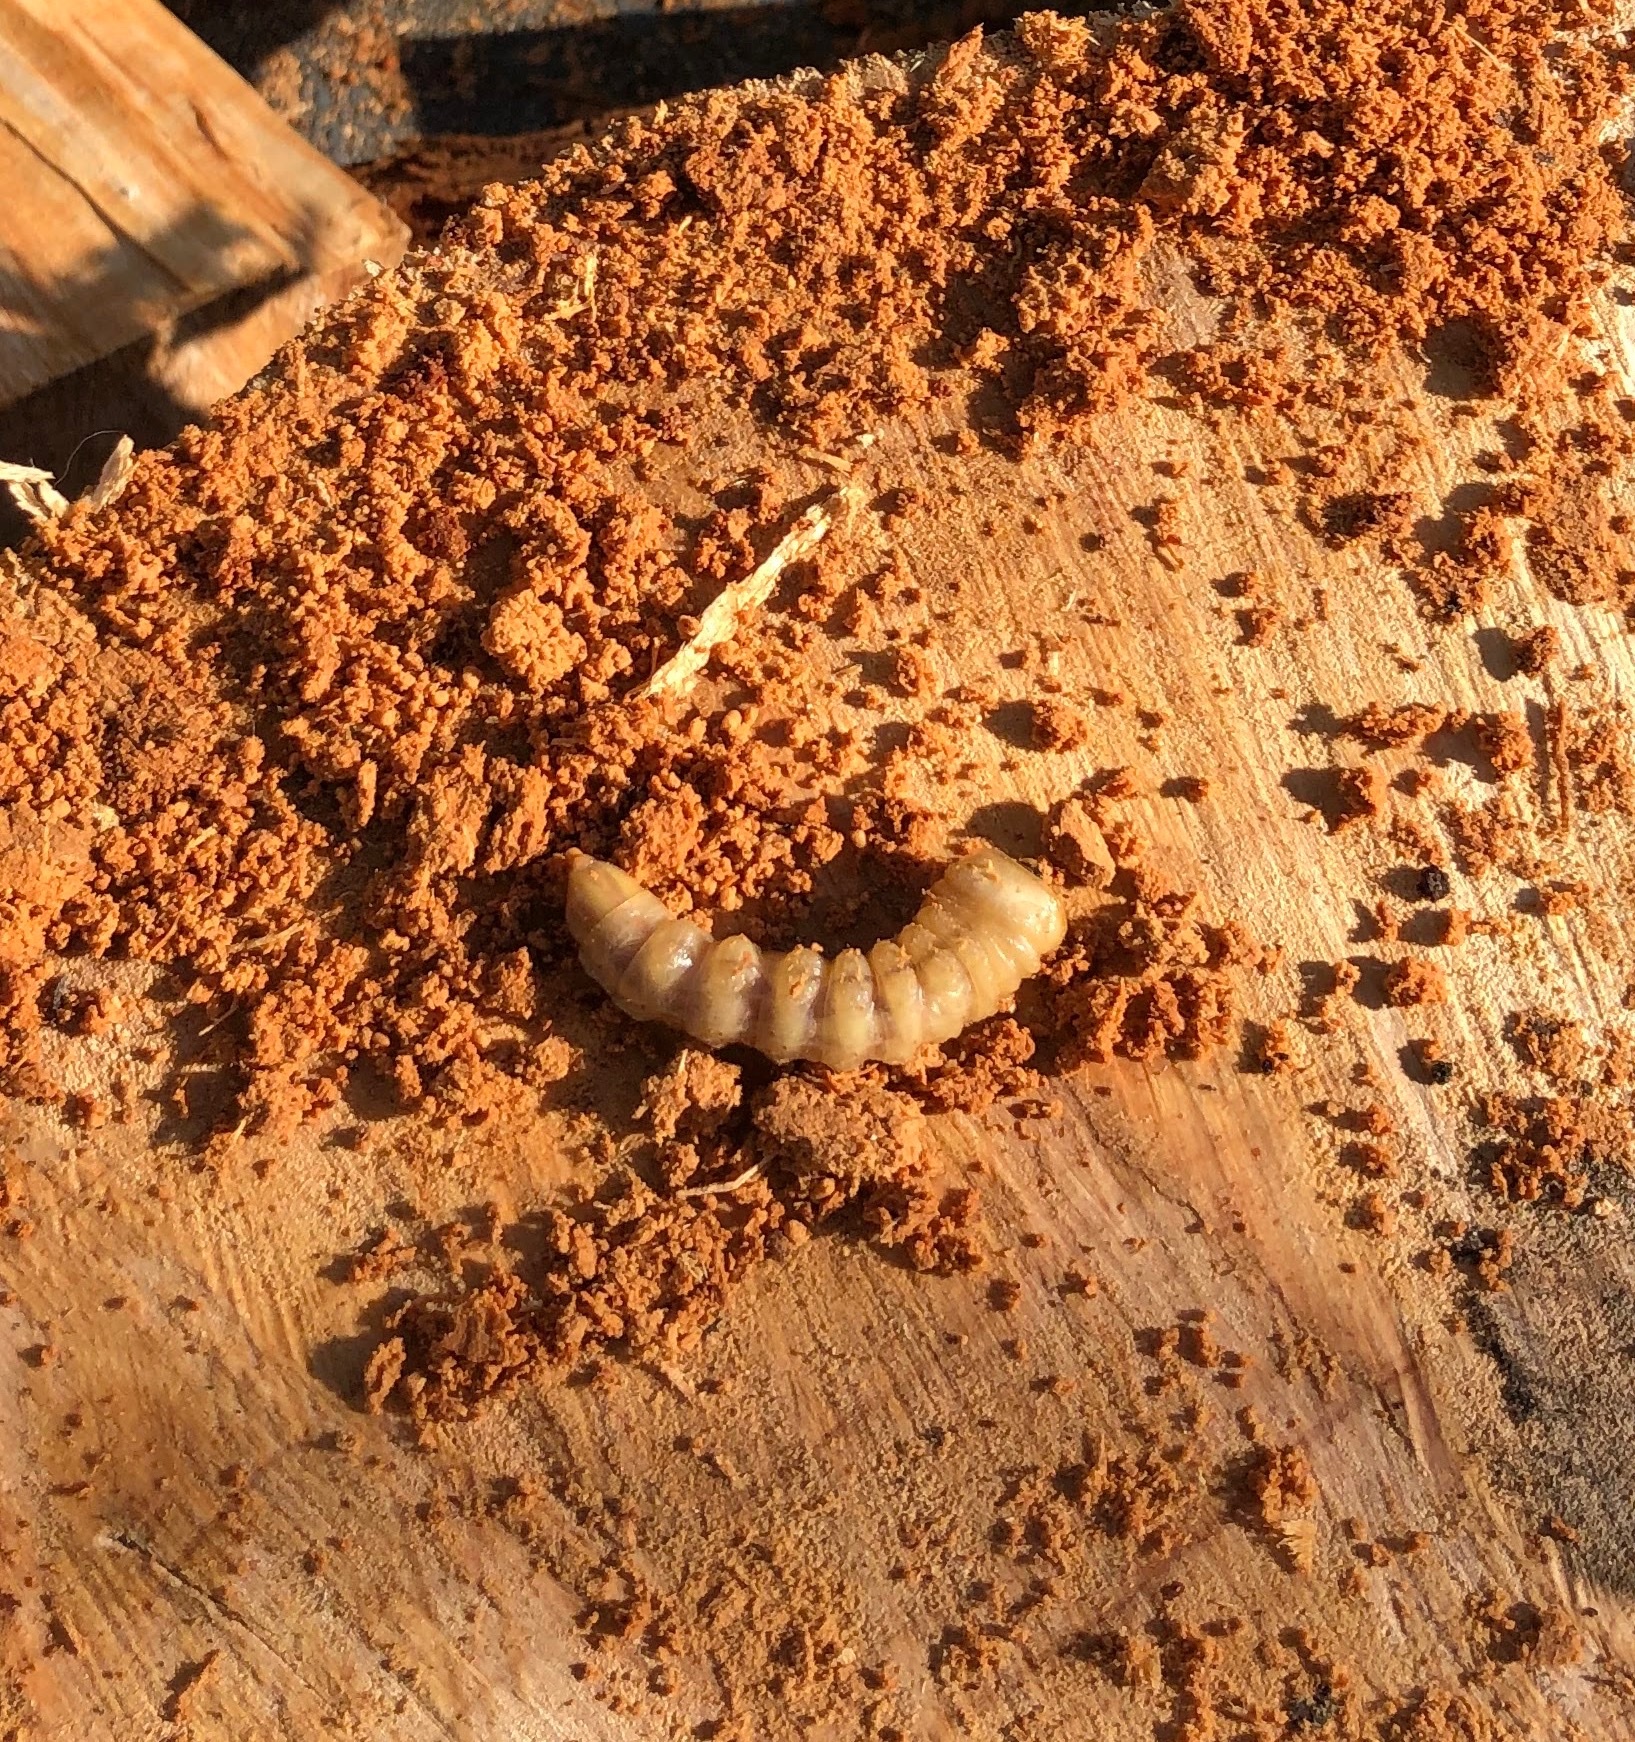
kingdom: Animalia
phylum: Arthropoda
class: Insecta
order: Coleoptera
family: Cerambycidae
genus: Prionoplus
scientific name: Prionoplus reticularis
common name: Huhu beetle
